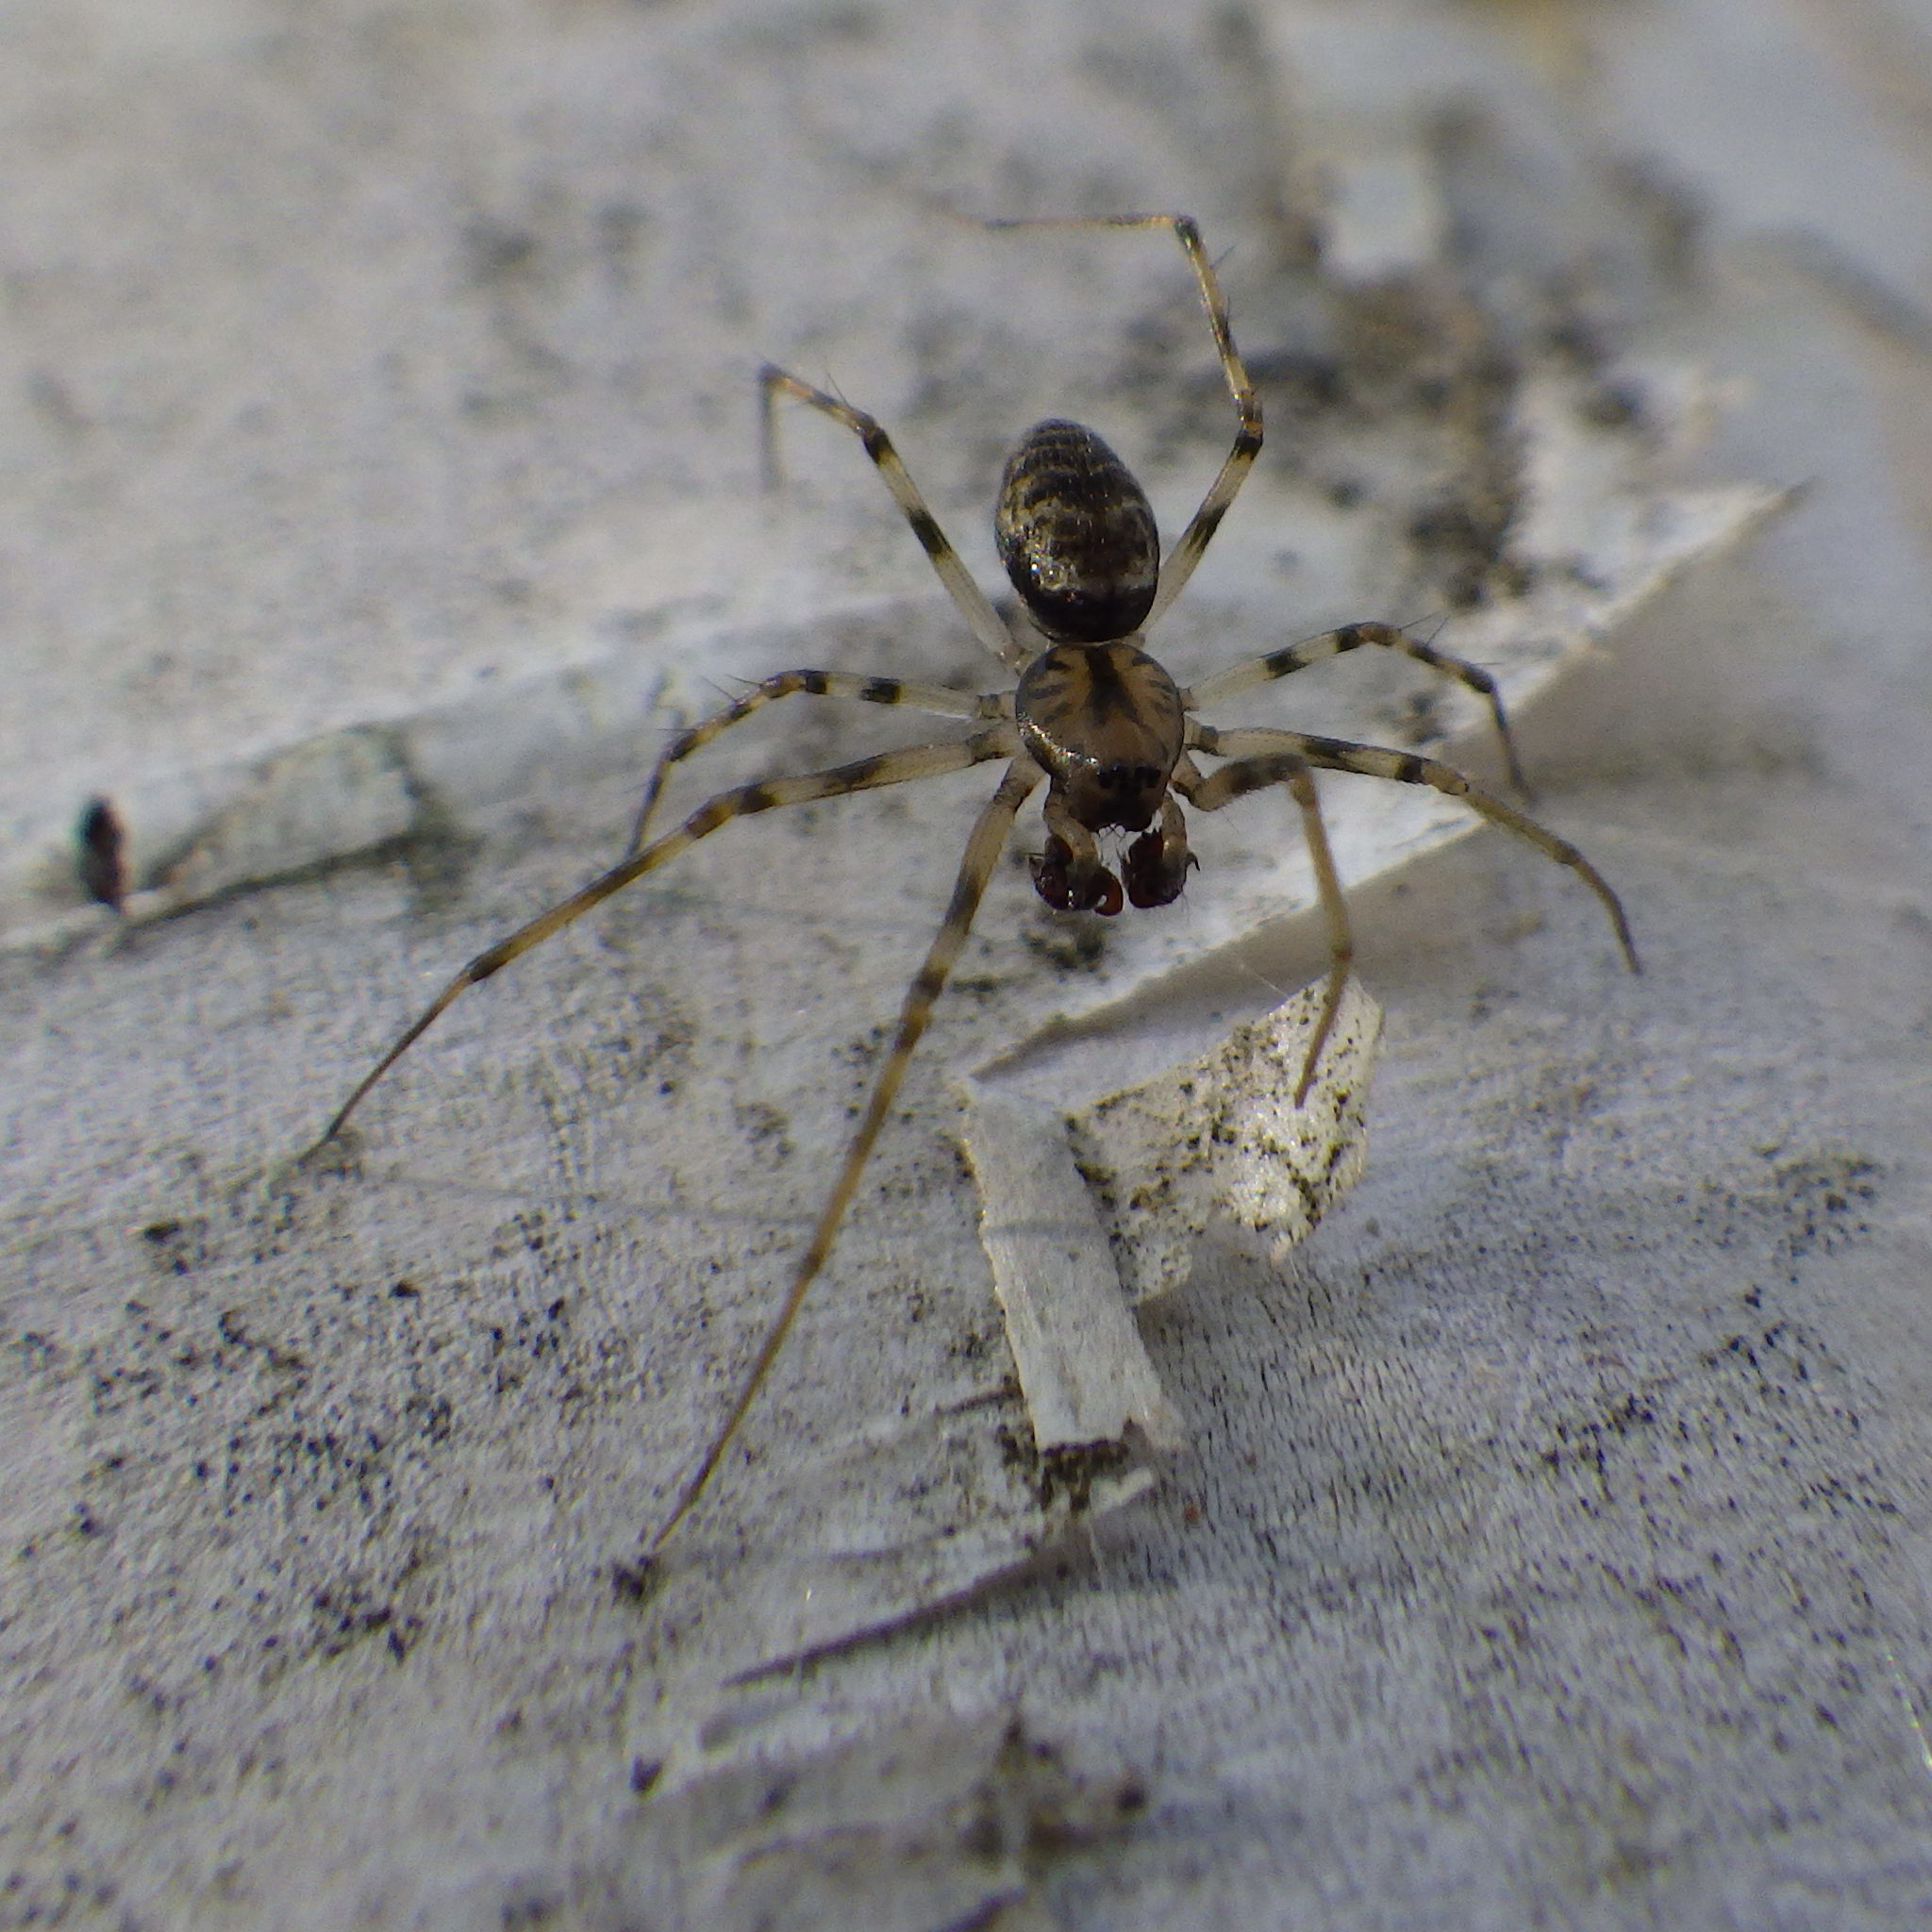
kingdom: Animalia
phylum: Arthropoda
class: Arachnida
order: Araneae
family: Linyphiidae
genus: Drapetisca
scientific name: Drapetisca alteranda
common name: Northern long-toothed sheetweaver
